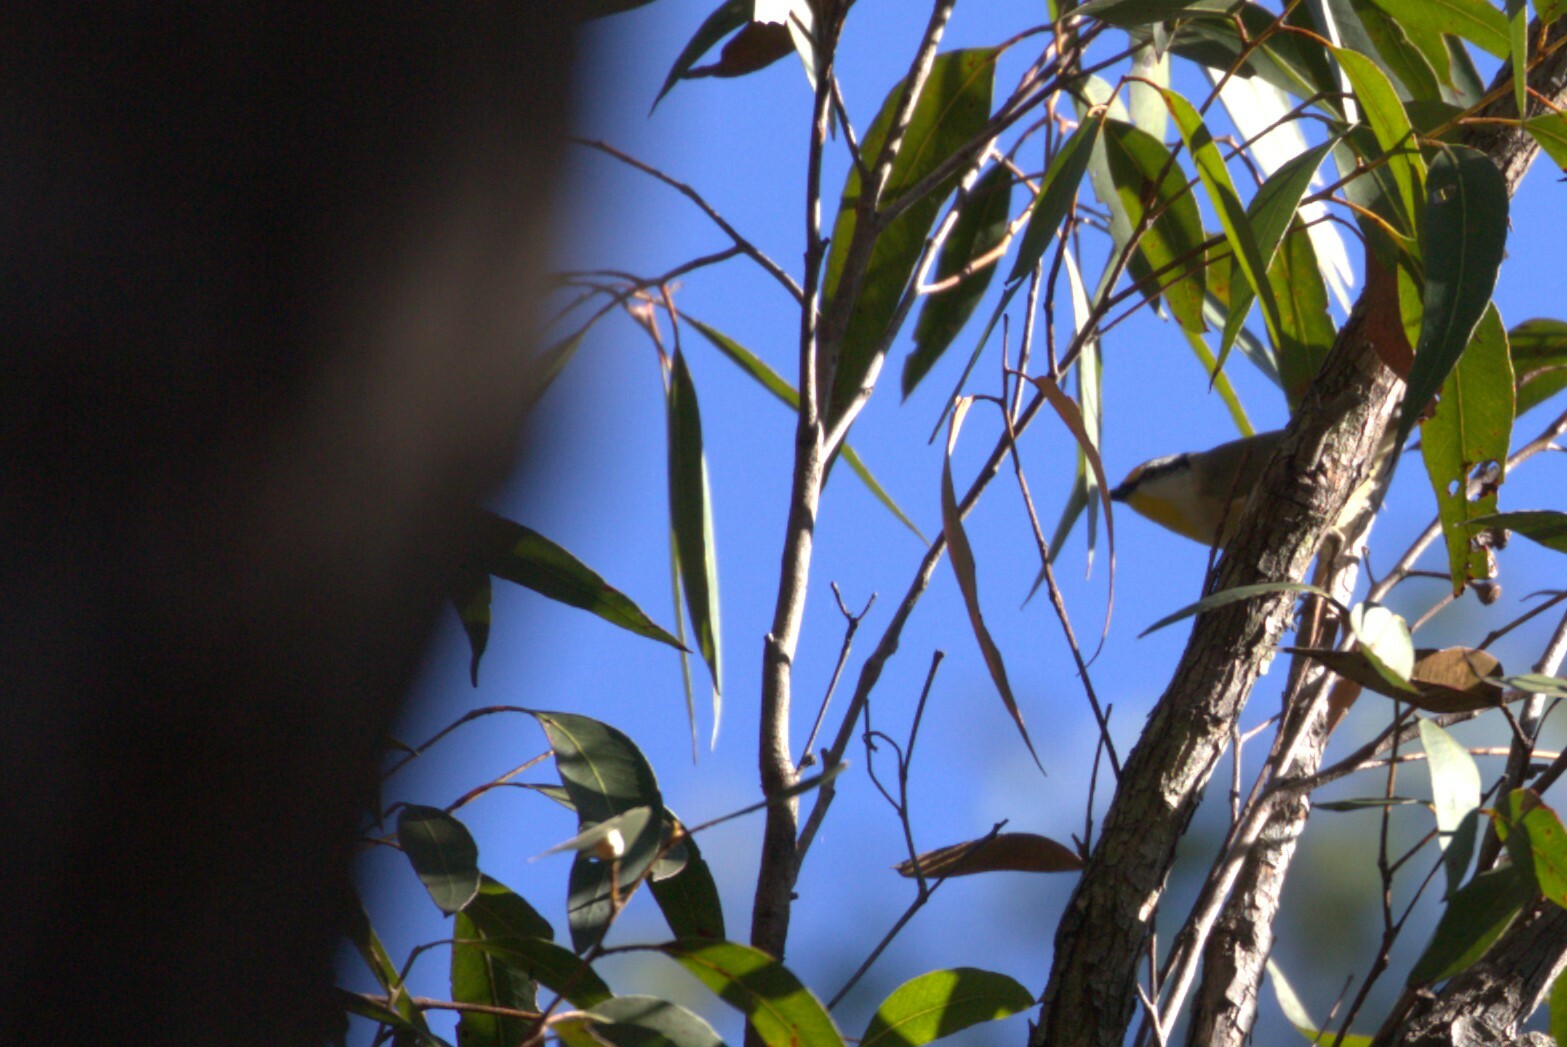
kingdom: Animalia
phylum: Chordata
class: Aves
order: Passeriformes
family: Pardalotidae
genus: Pardalotus
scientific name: Pardalotus striatus
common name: Striated pardalote
